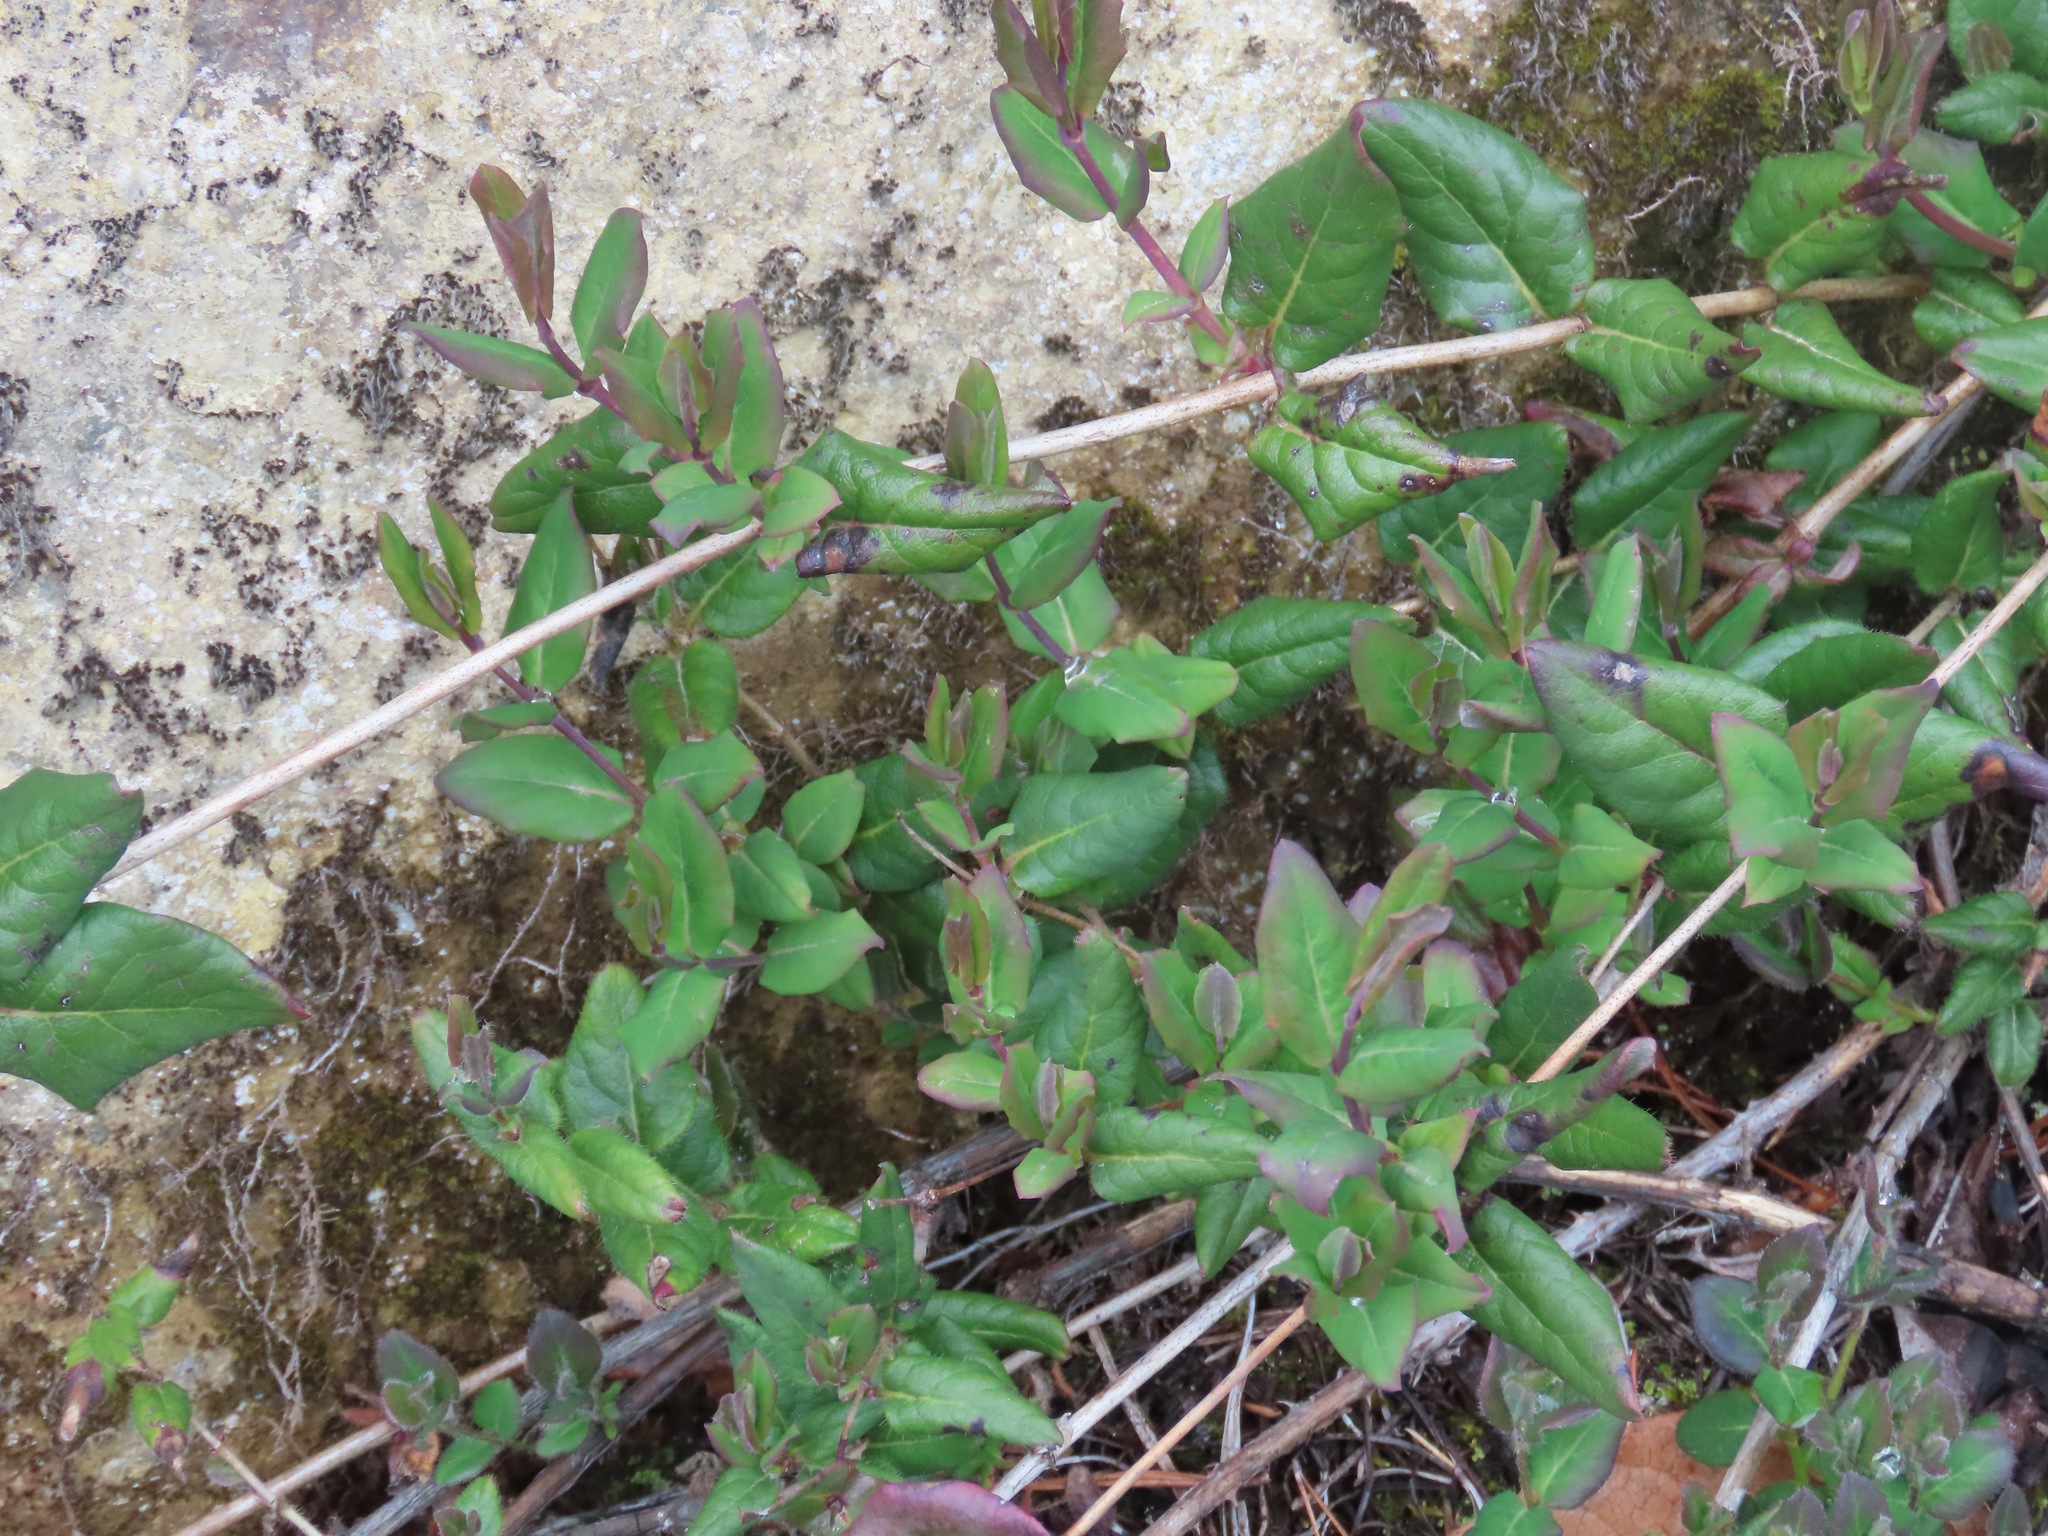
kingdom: Plantae
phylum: Tracheophyta
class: Magnoliopsida
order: Dipsacales
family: Caprifoliaceae
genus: Lonicera
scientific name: Lonicera hispidula
